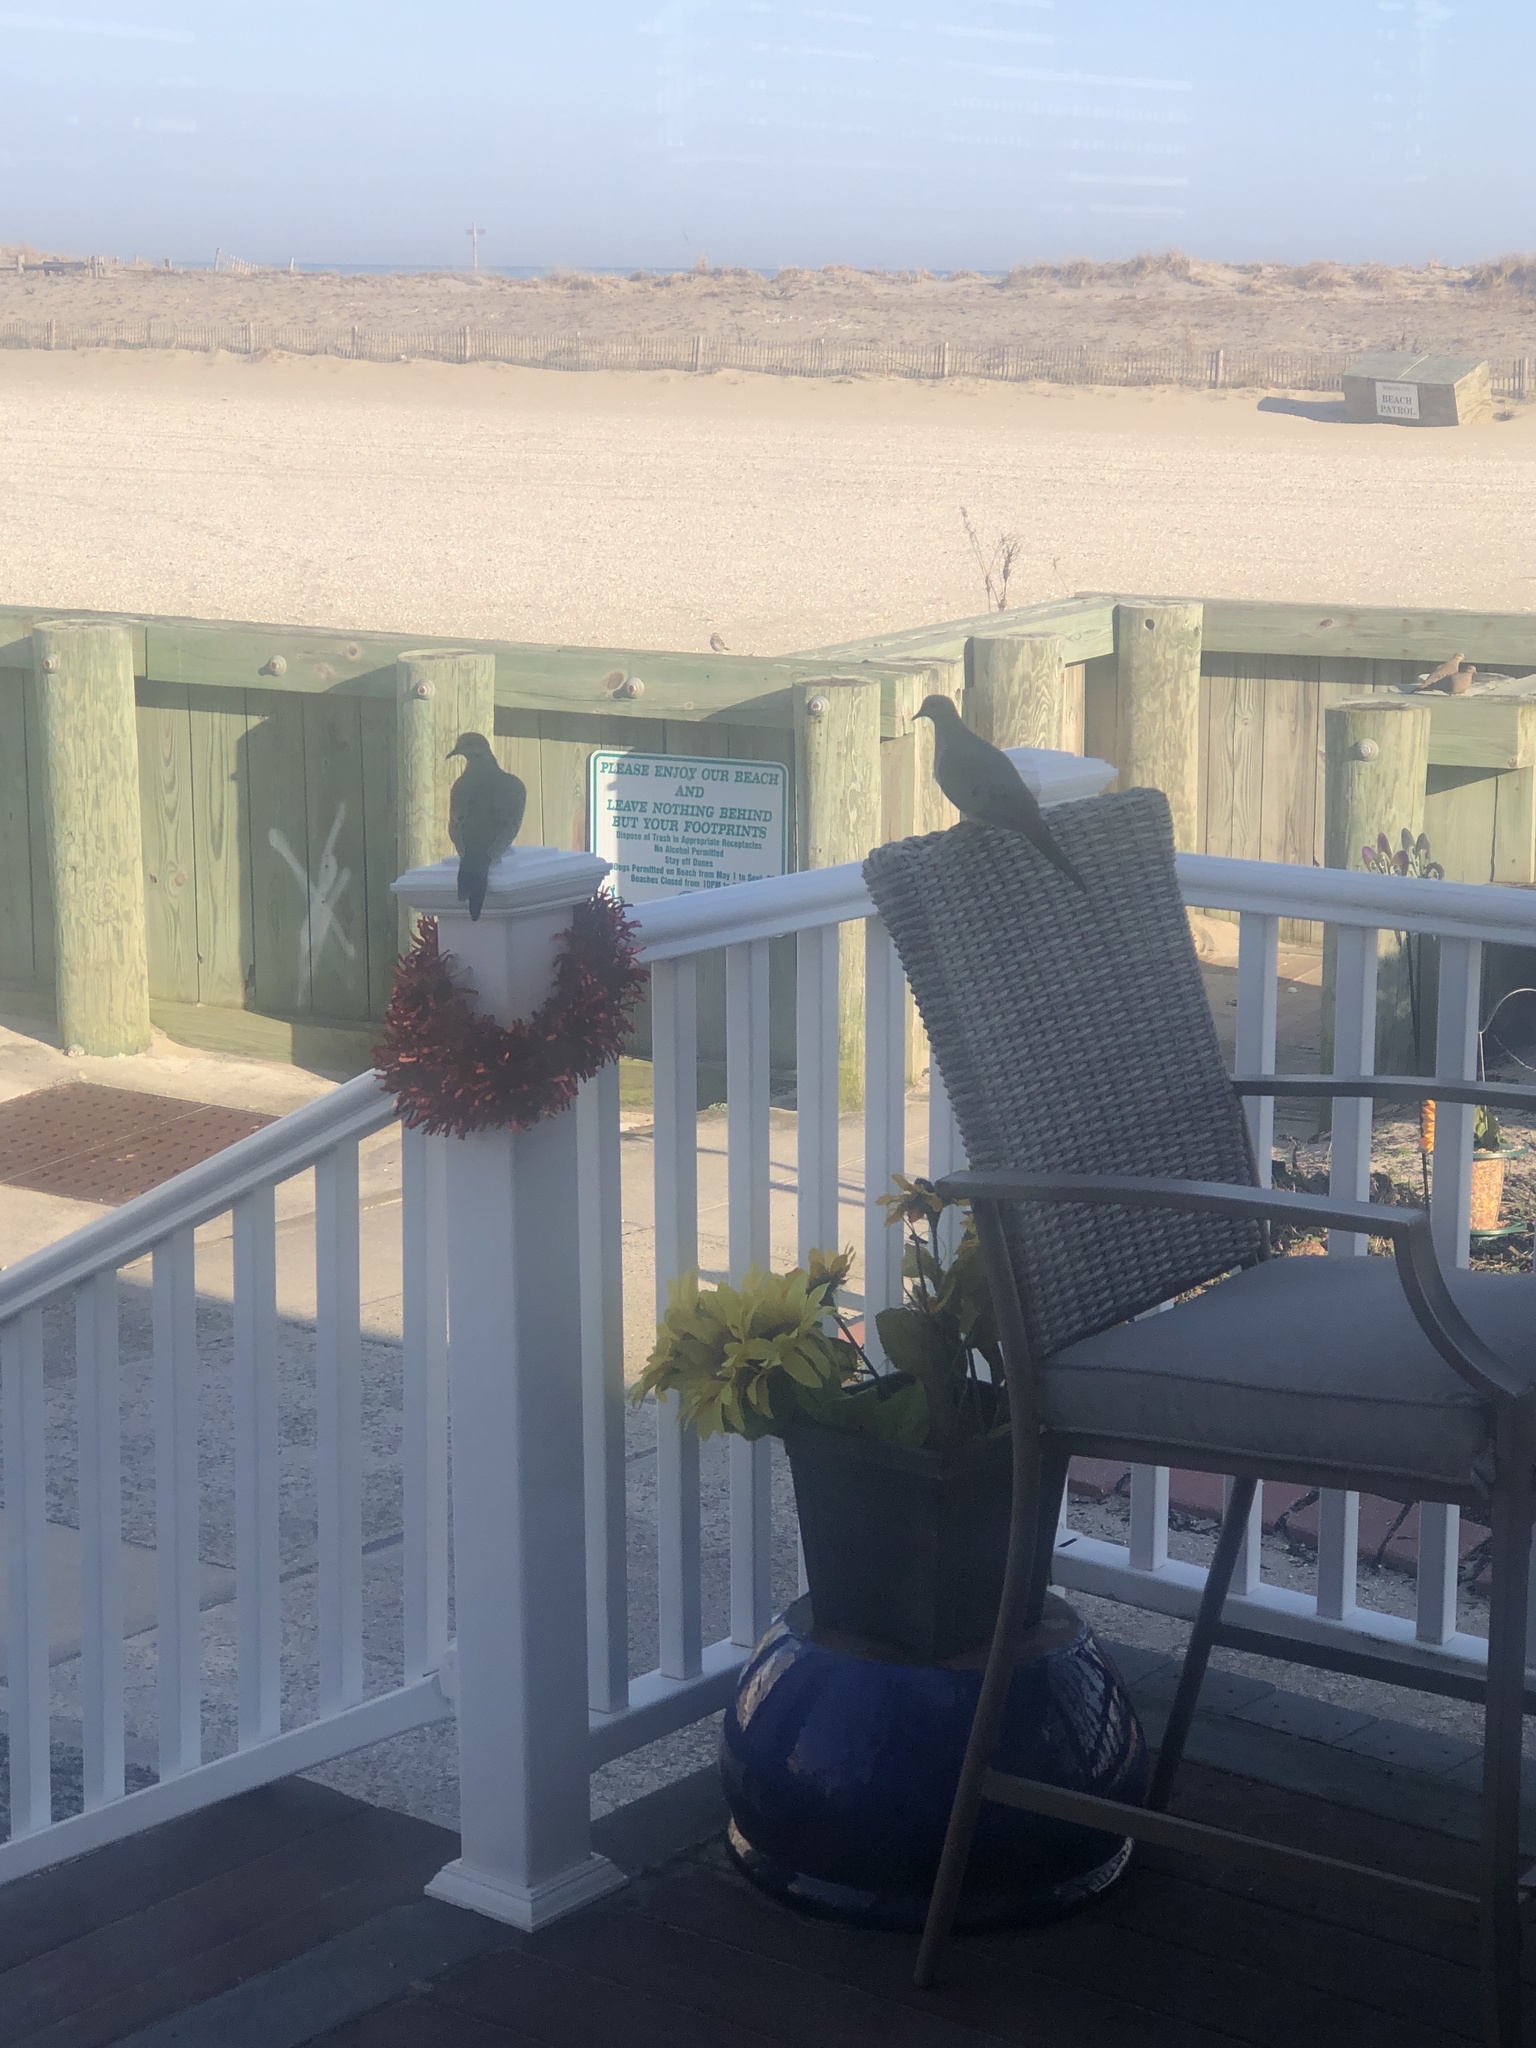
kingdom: Animalia
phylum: Chordata
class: Aves
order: Columbiformes
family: Columbidae
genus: Zenaida
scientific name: Zenaida macroura
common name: Mourning dove
